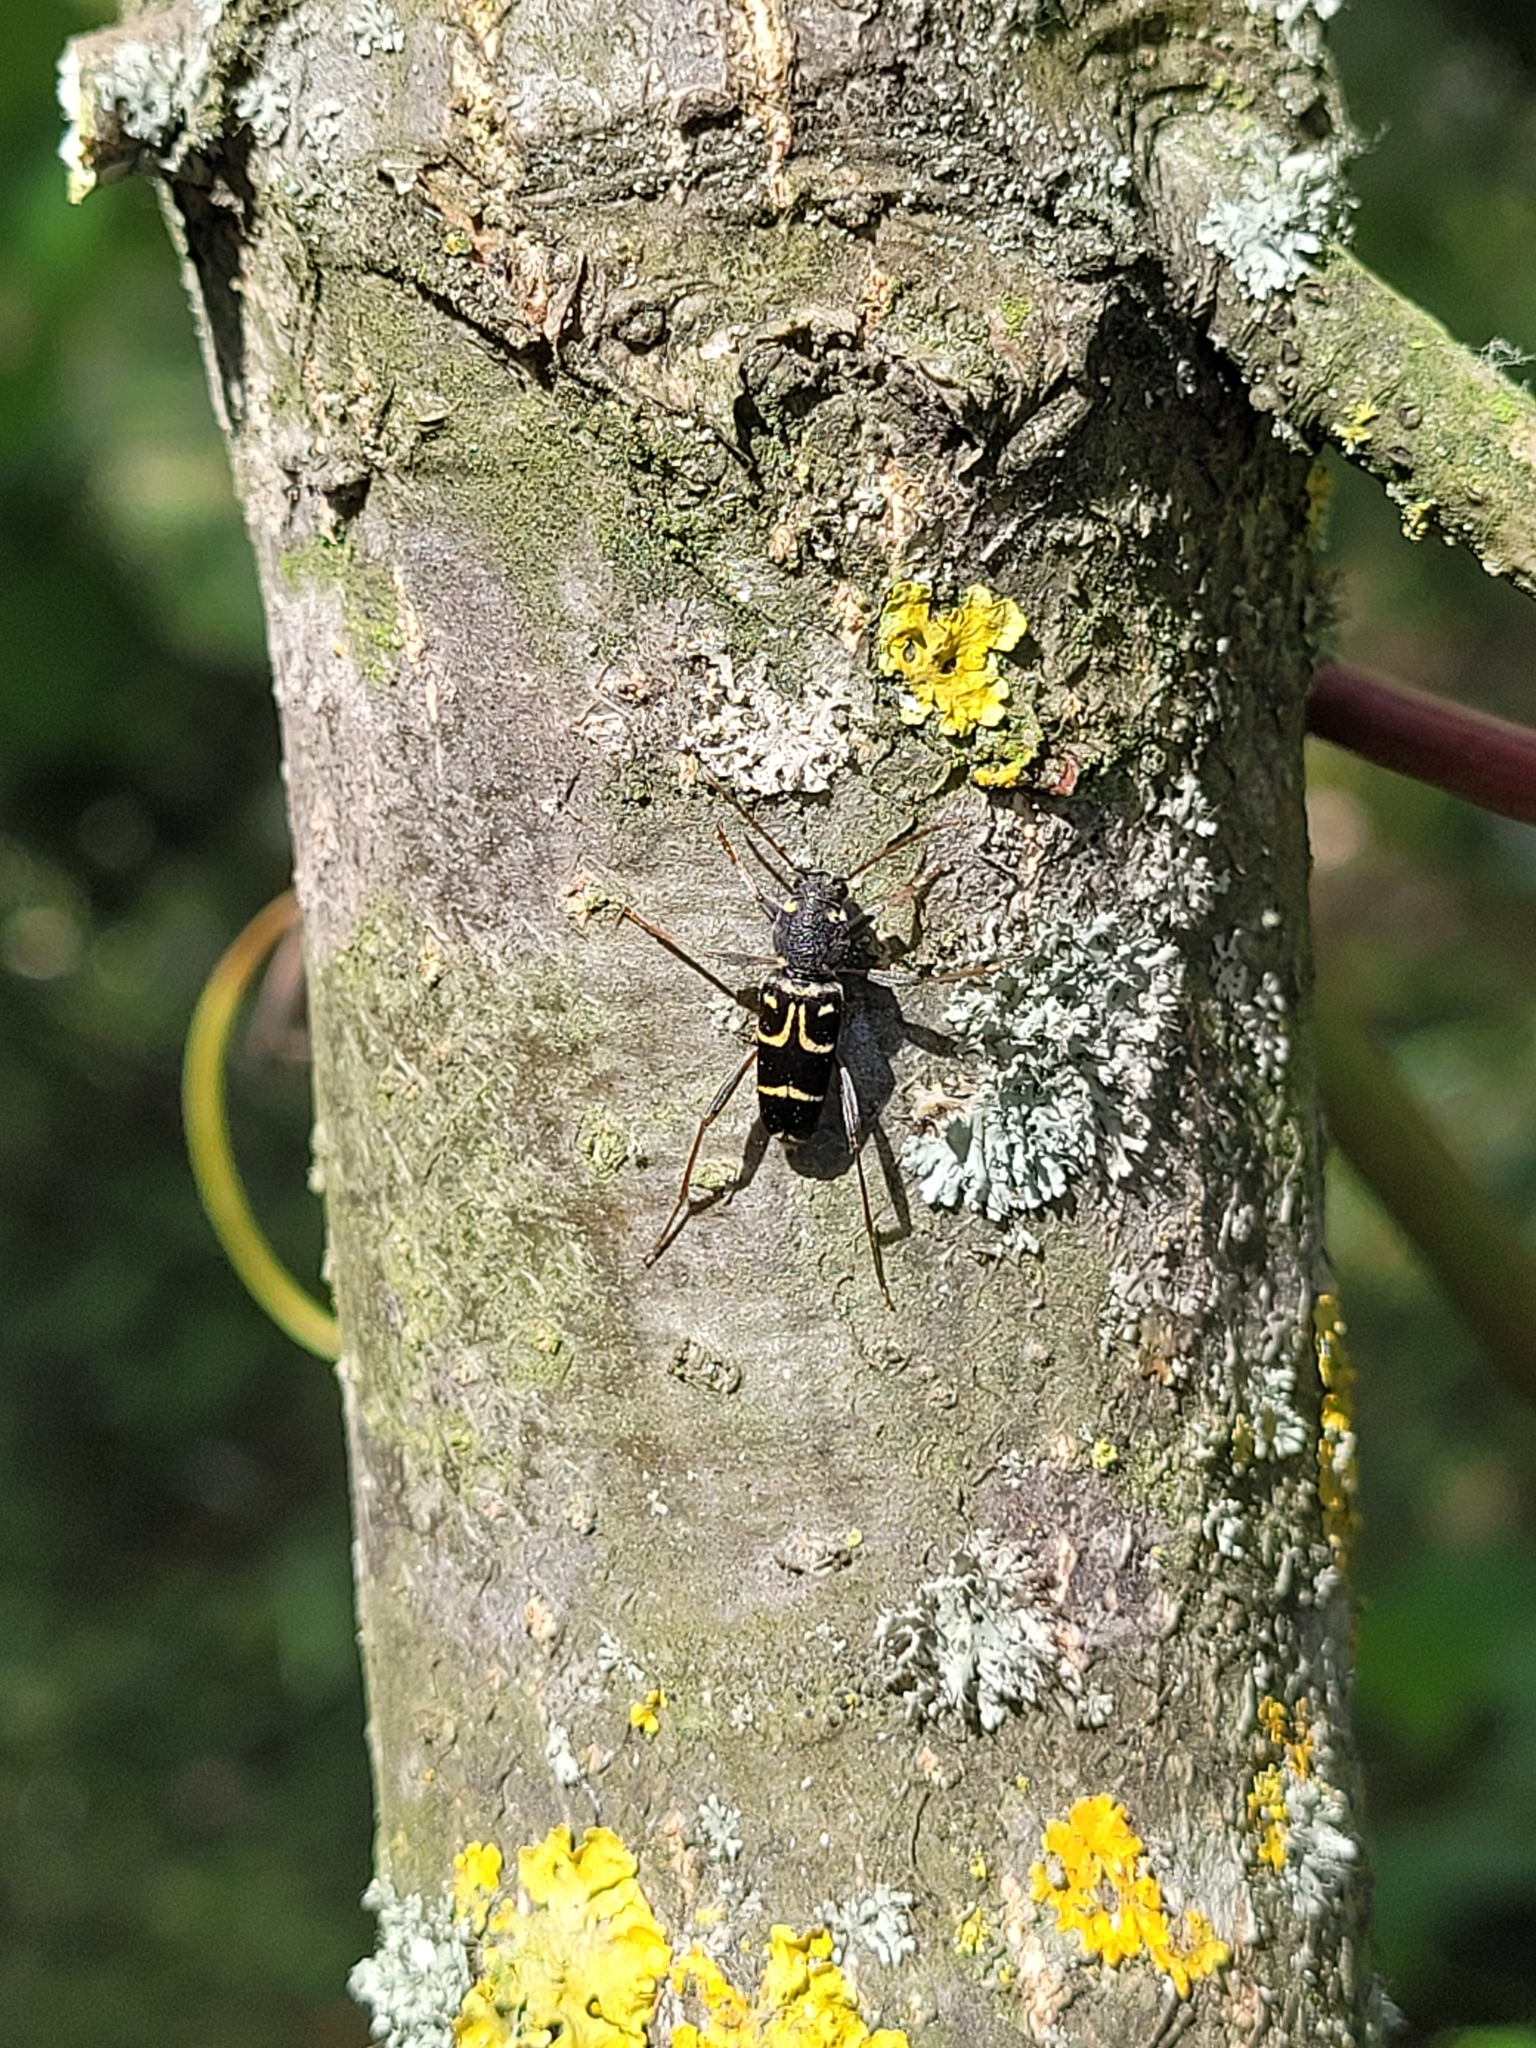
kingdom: Animalia
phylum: Arthropoda
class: Insecta
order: Coleoptera
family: Cerambycidae
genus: Xylotrechus
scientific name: Xylotrechus antilope
